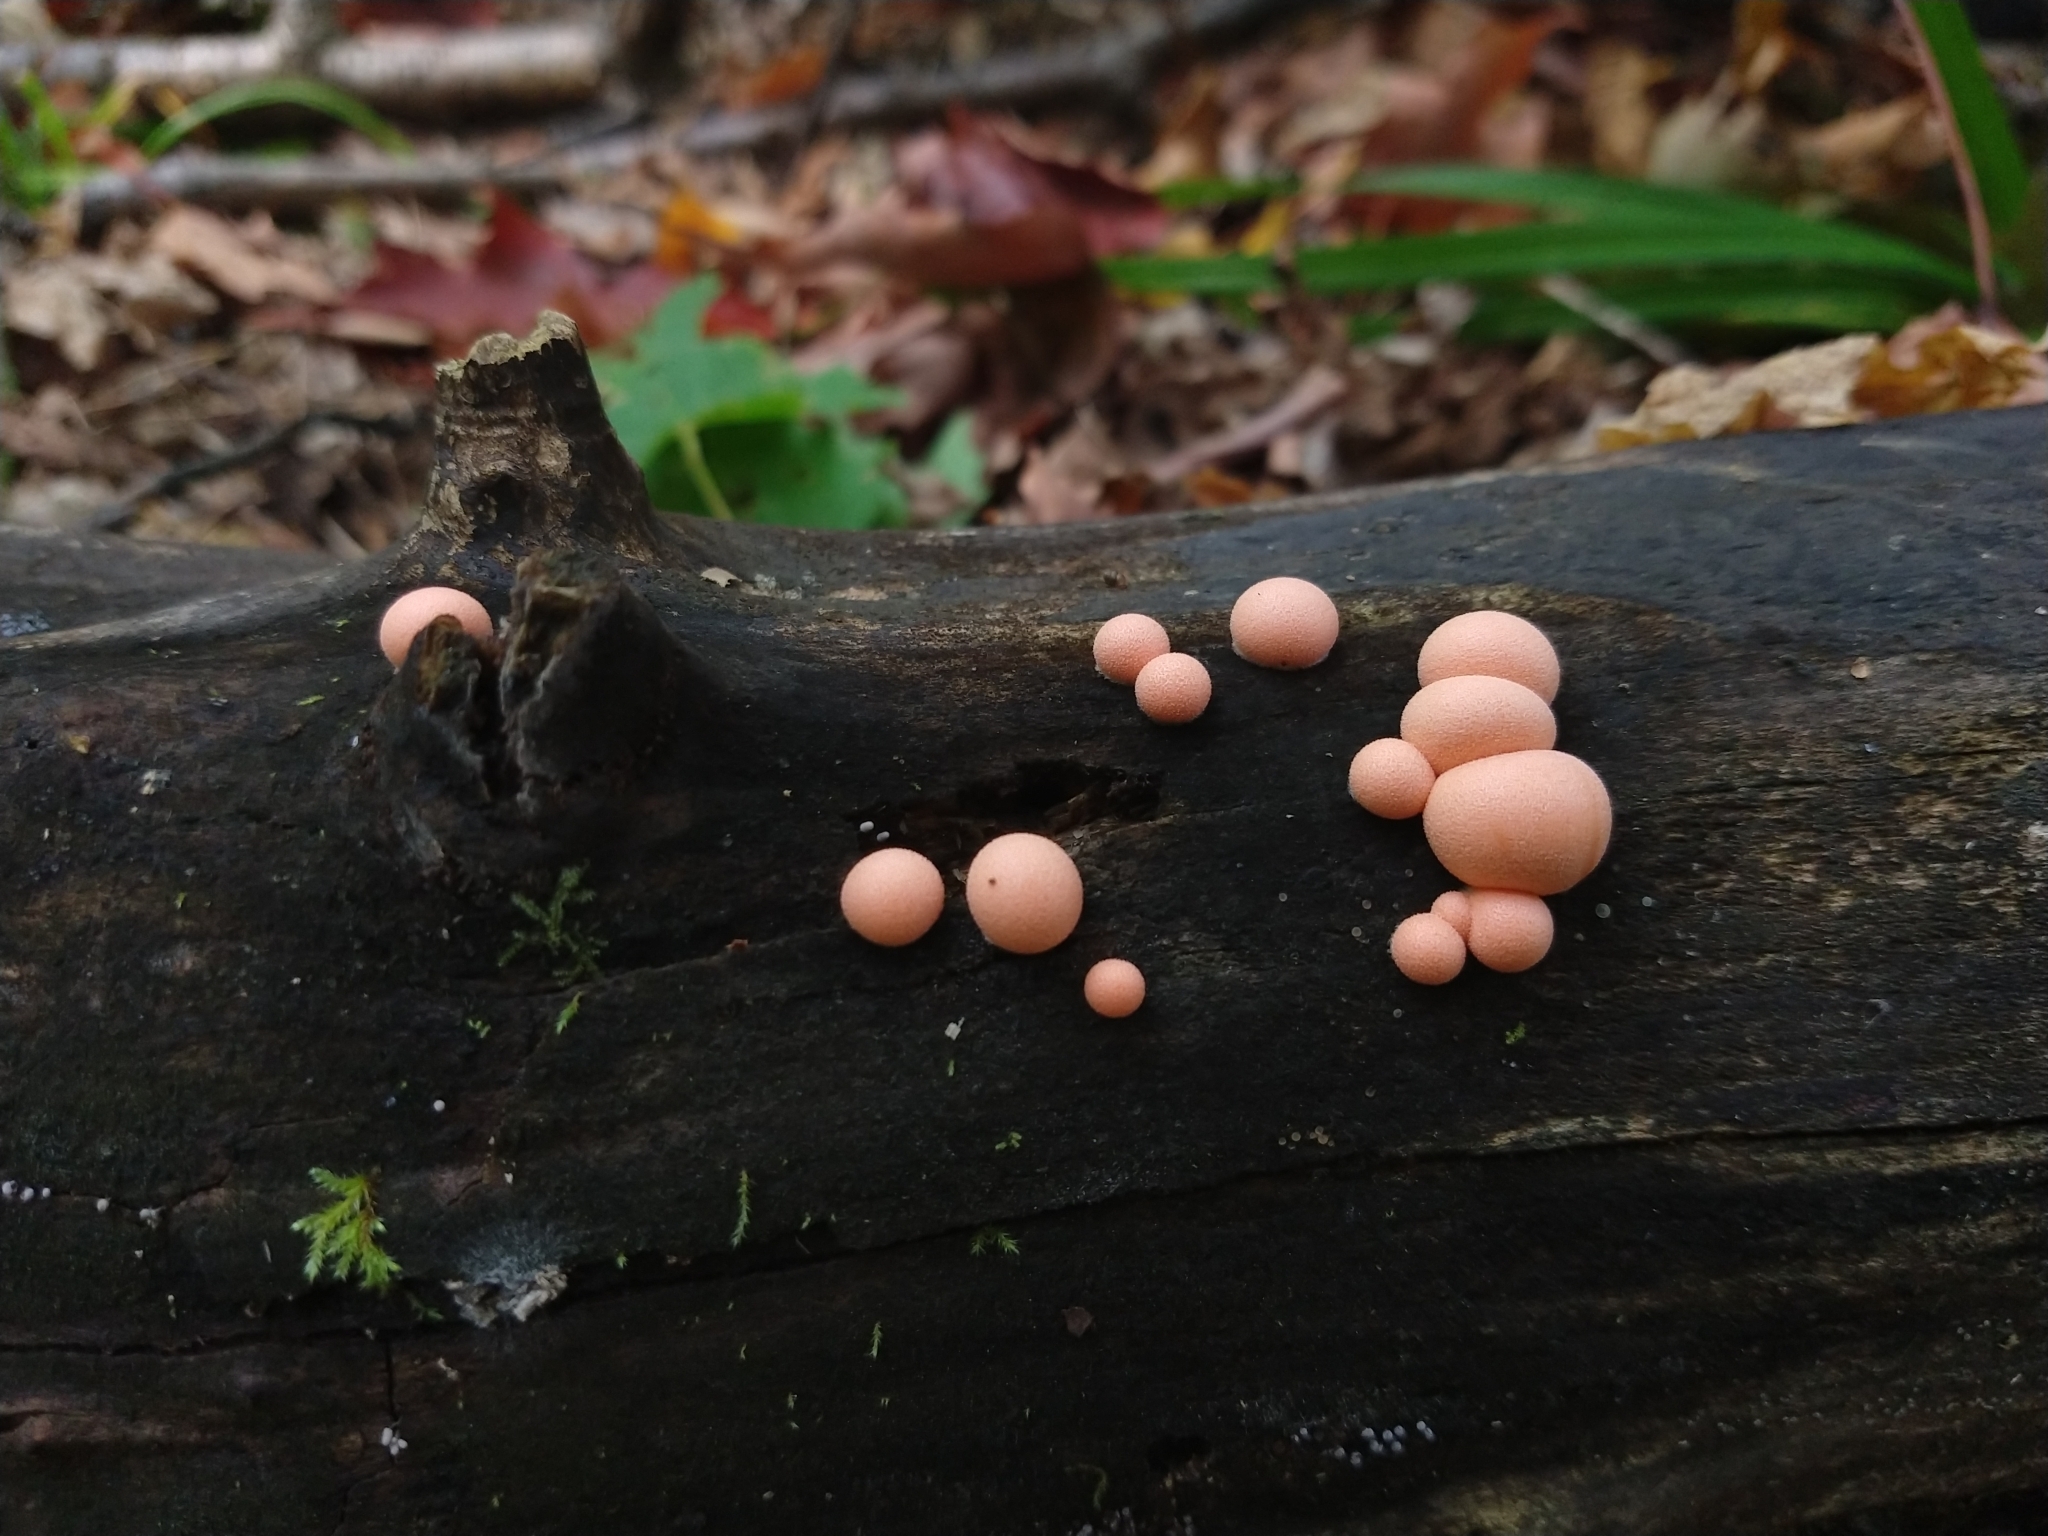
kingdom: Protozoa
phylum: Mycetozoa
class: Myxomycetes
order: Cribrariales
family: Tubiferaceae
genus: Lycogala
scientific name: Lycogala epidendrum
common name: Wolf's milk
